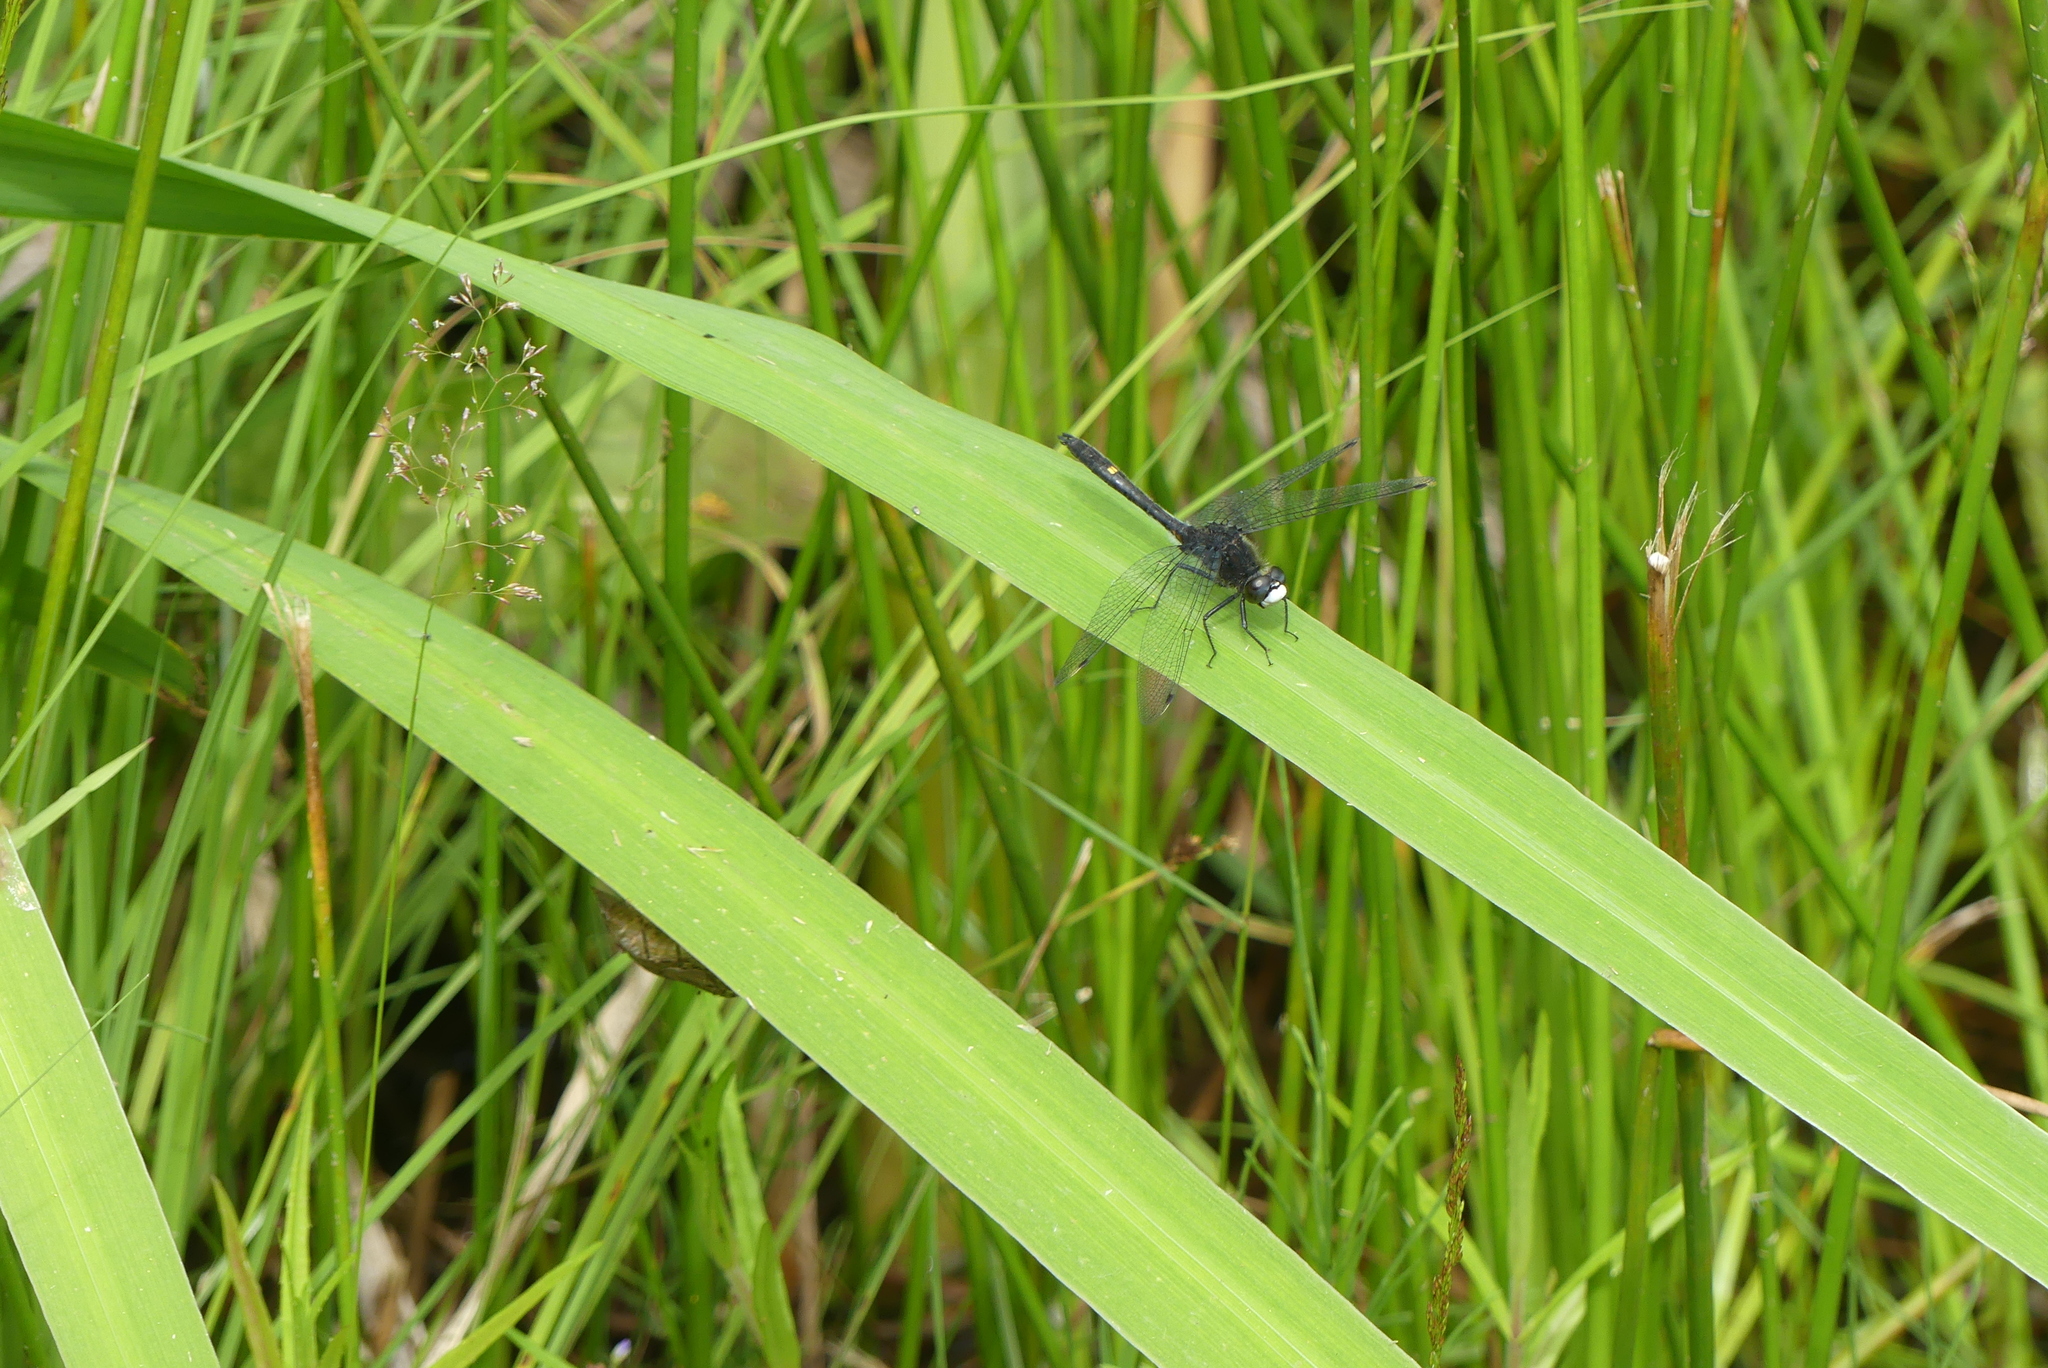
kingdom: Animalia
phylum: Arthropoda
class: Insecta
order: Odonata
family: Libellulidae
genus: Leucorrhinia
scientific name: Leucorrhinia intacta
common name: Dot-tailed whiteface
